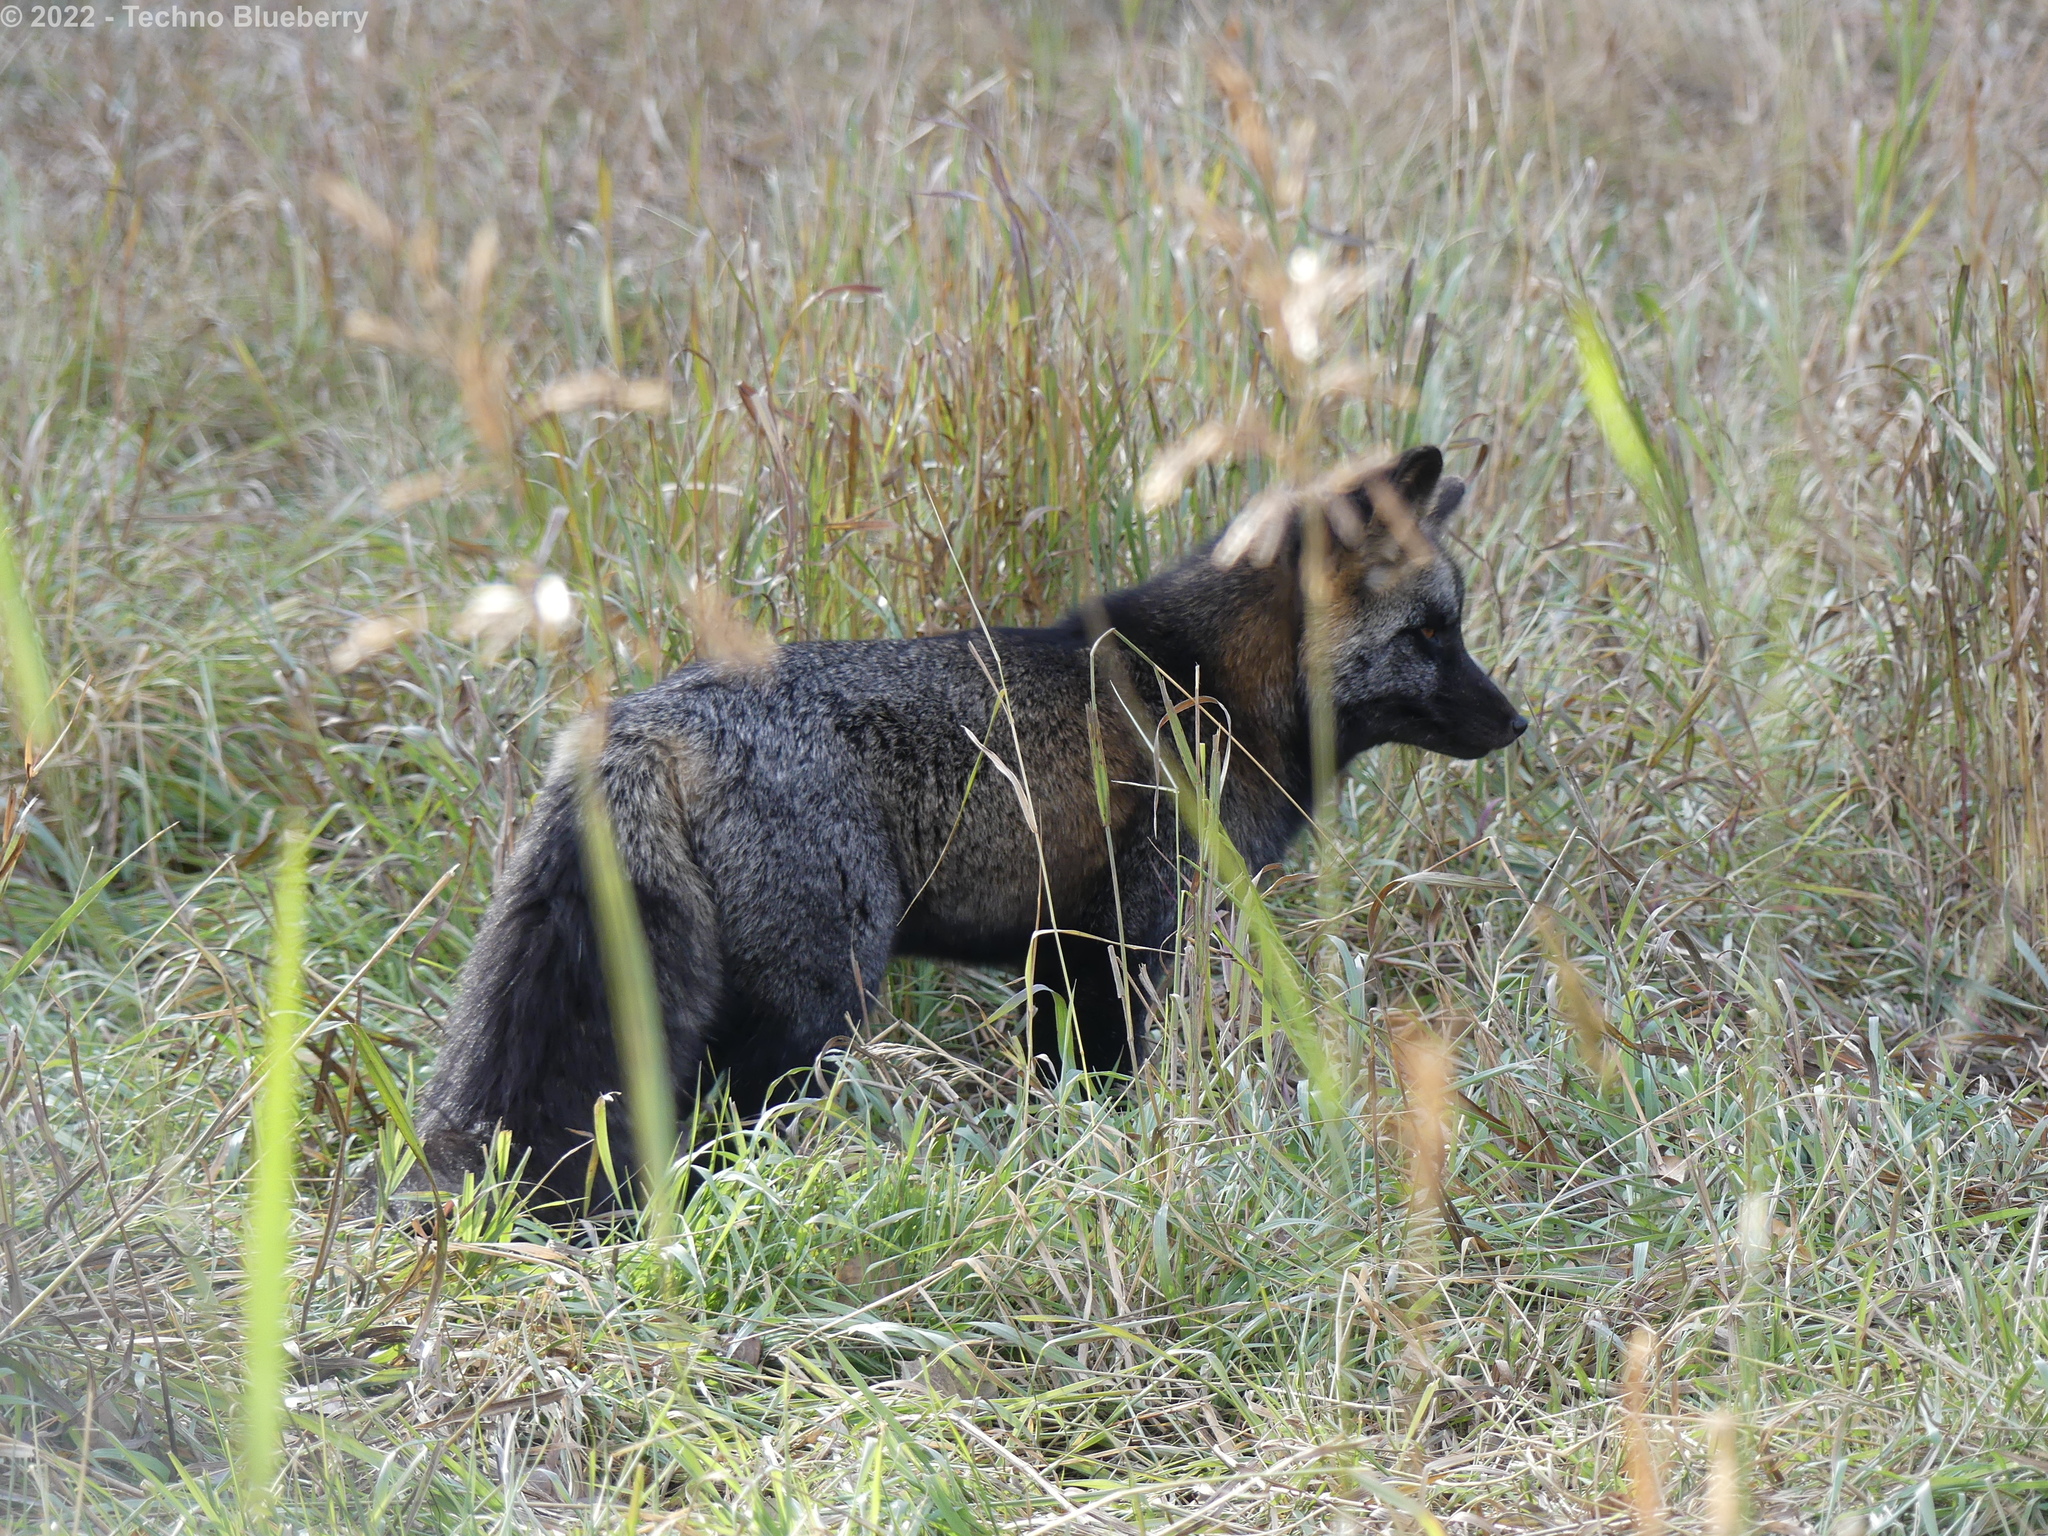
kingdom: Animalia
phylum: Chordata
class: Mammalia
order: Carnivora
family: Canidae
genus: Vulpes
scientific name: Vulpes vulpes
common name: Red fox
